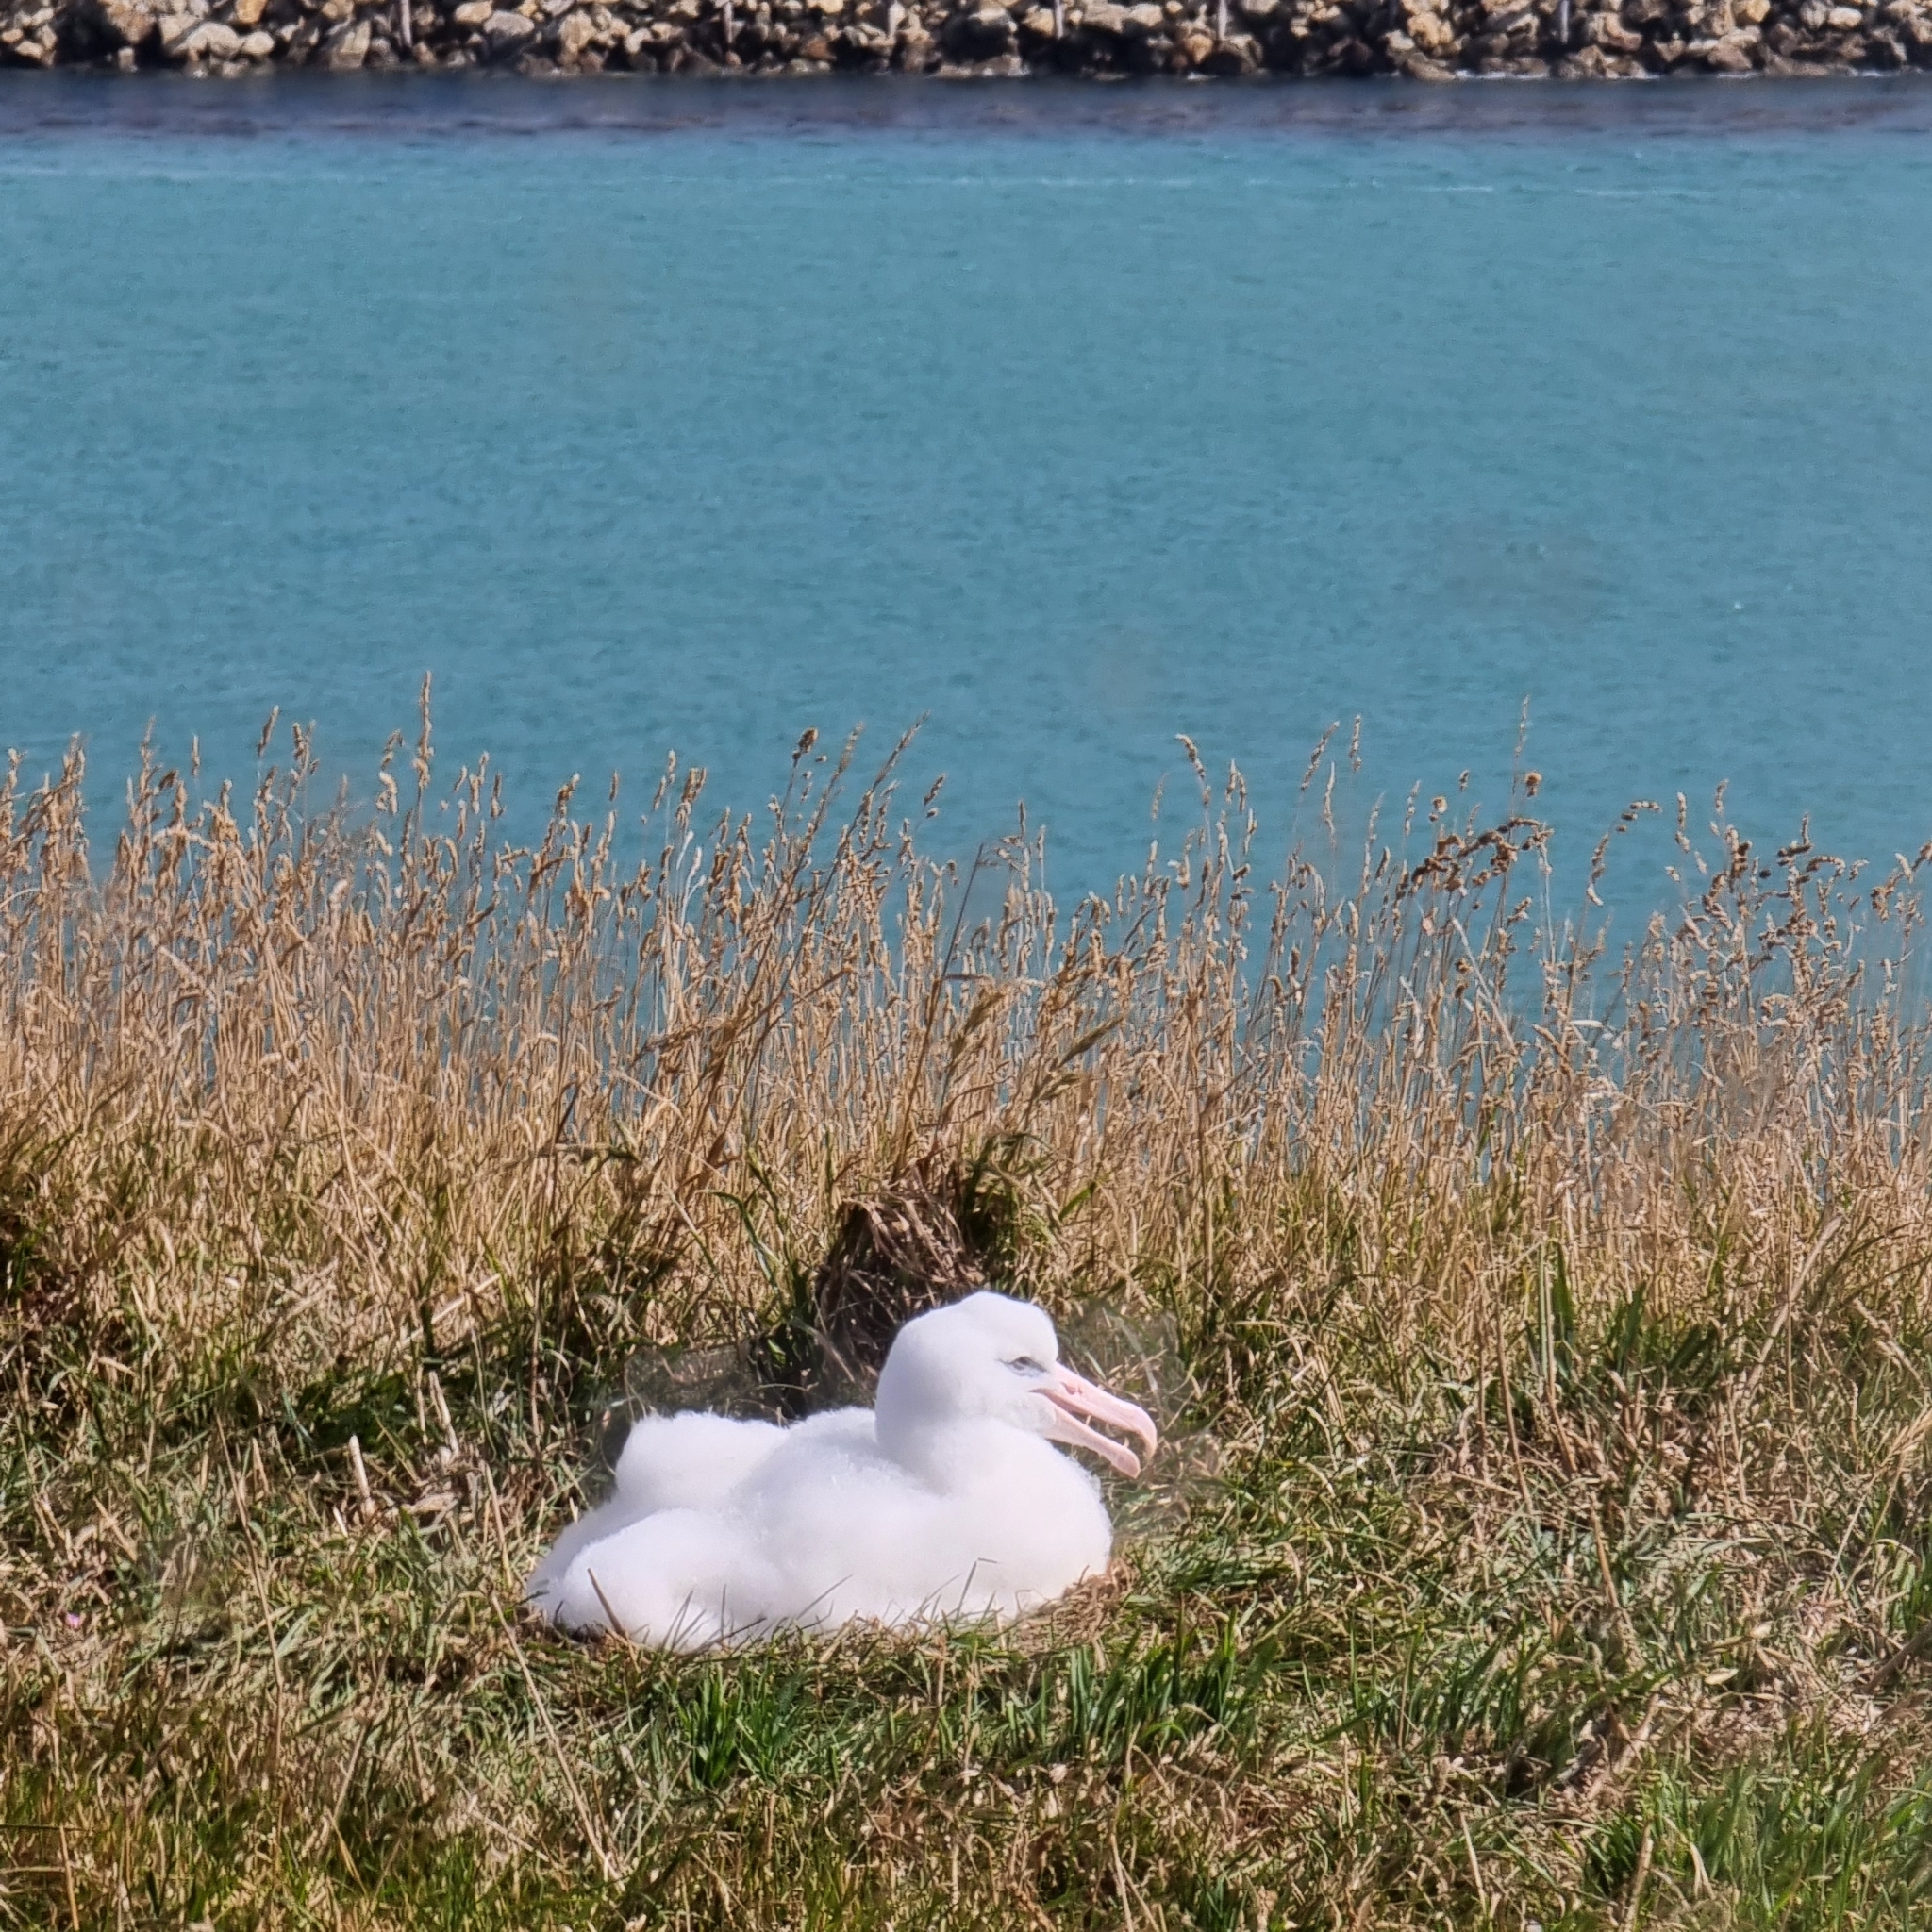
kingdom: Animalia
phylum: Chordata
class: Aves
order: Procellariiformes
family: Diomedeidae
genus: Diomedea
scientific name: Diomedea sanfordi
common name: Northern royal albatross
